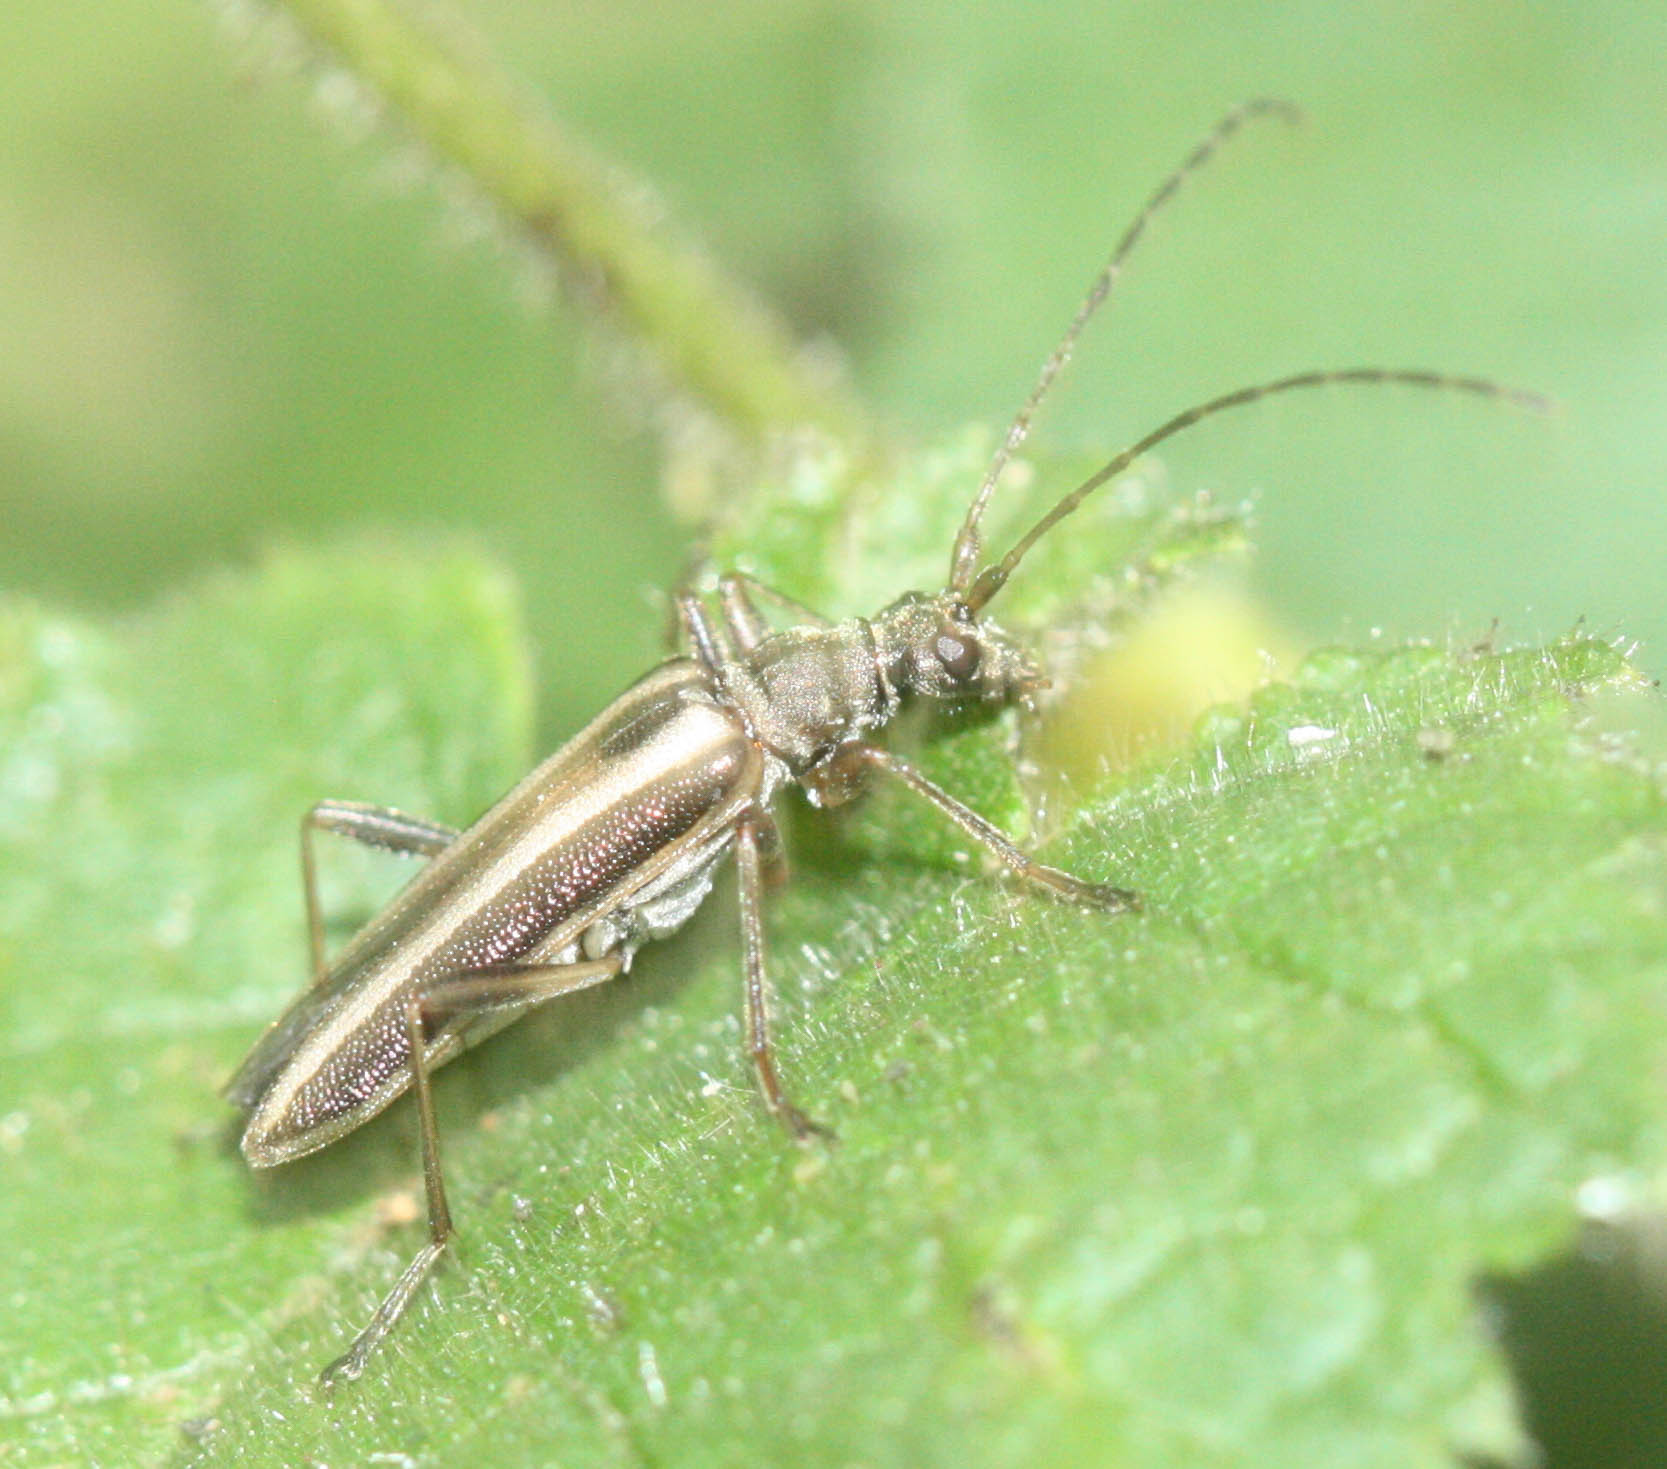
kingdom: Animalia
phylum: Arthropoda
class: Insecta
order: Coleoptera
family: Cerambycidae
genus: Leptalia
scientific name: Leptalia macilenta
